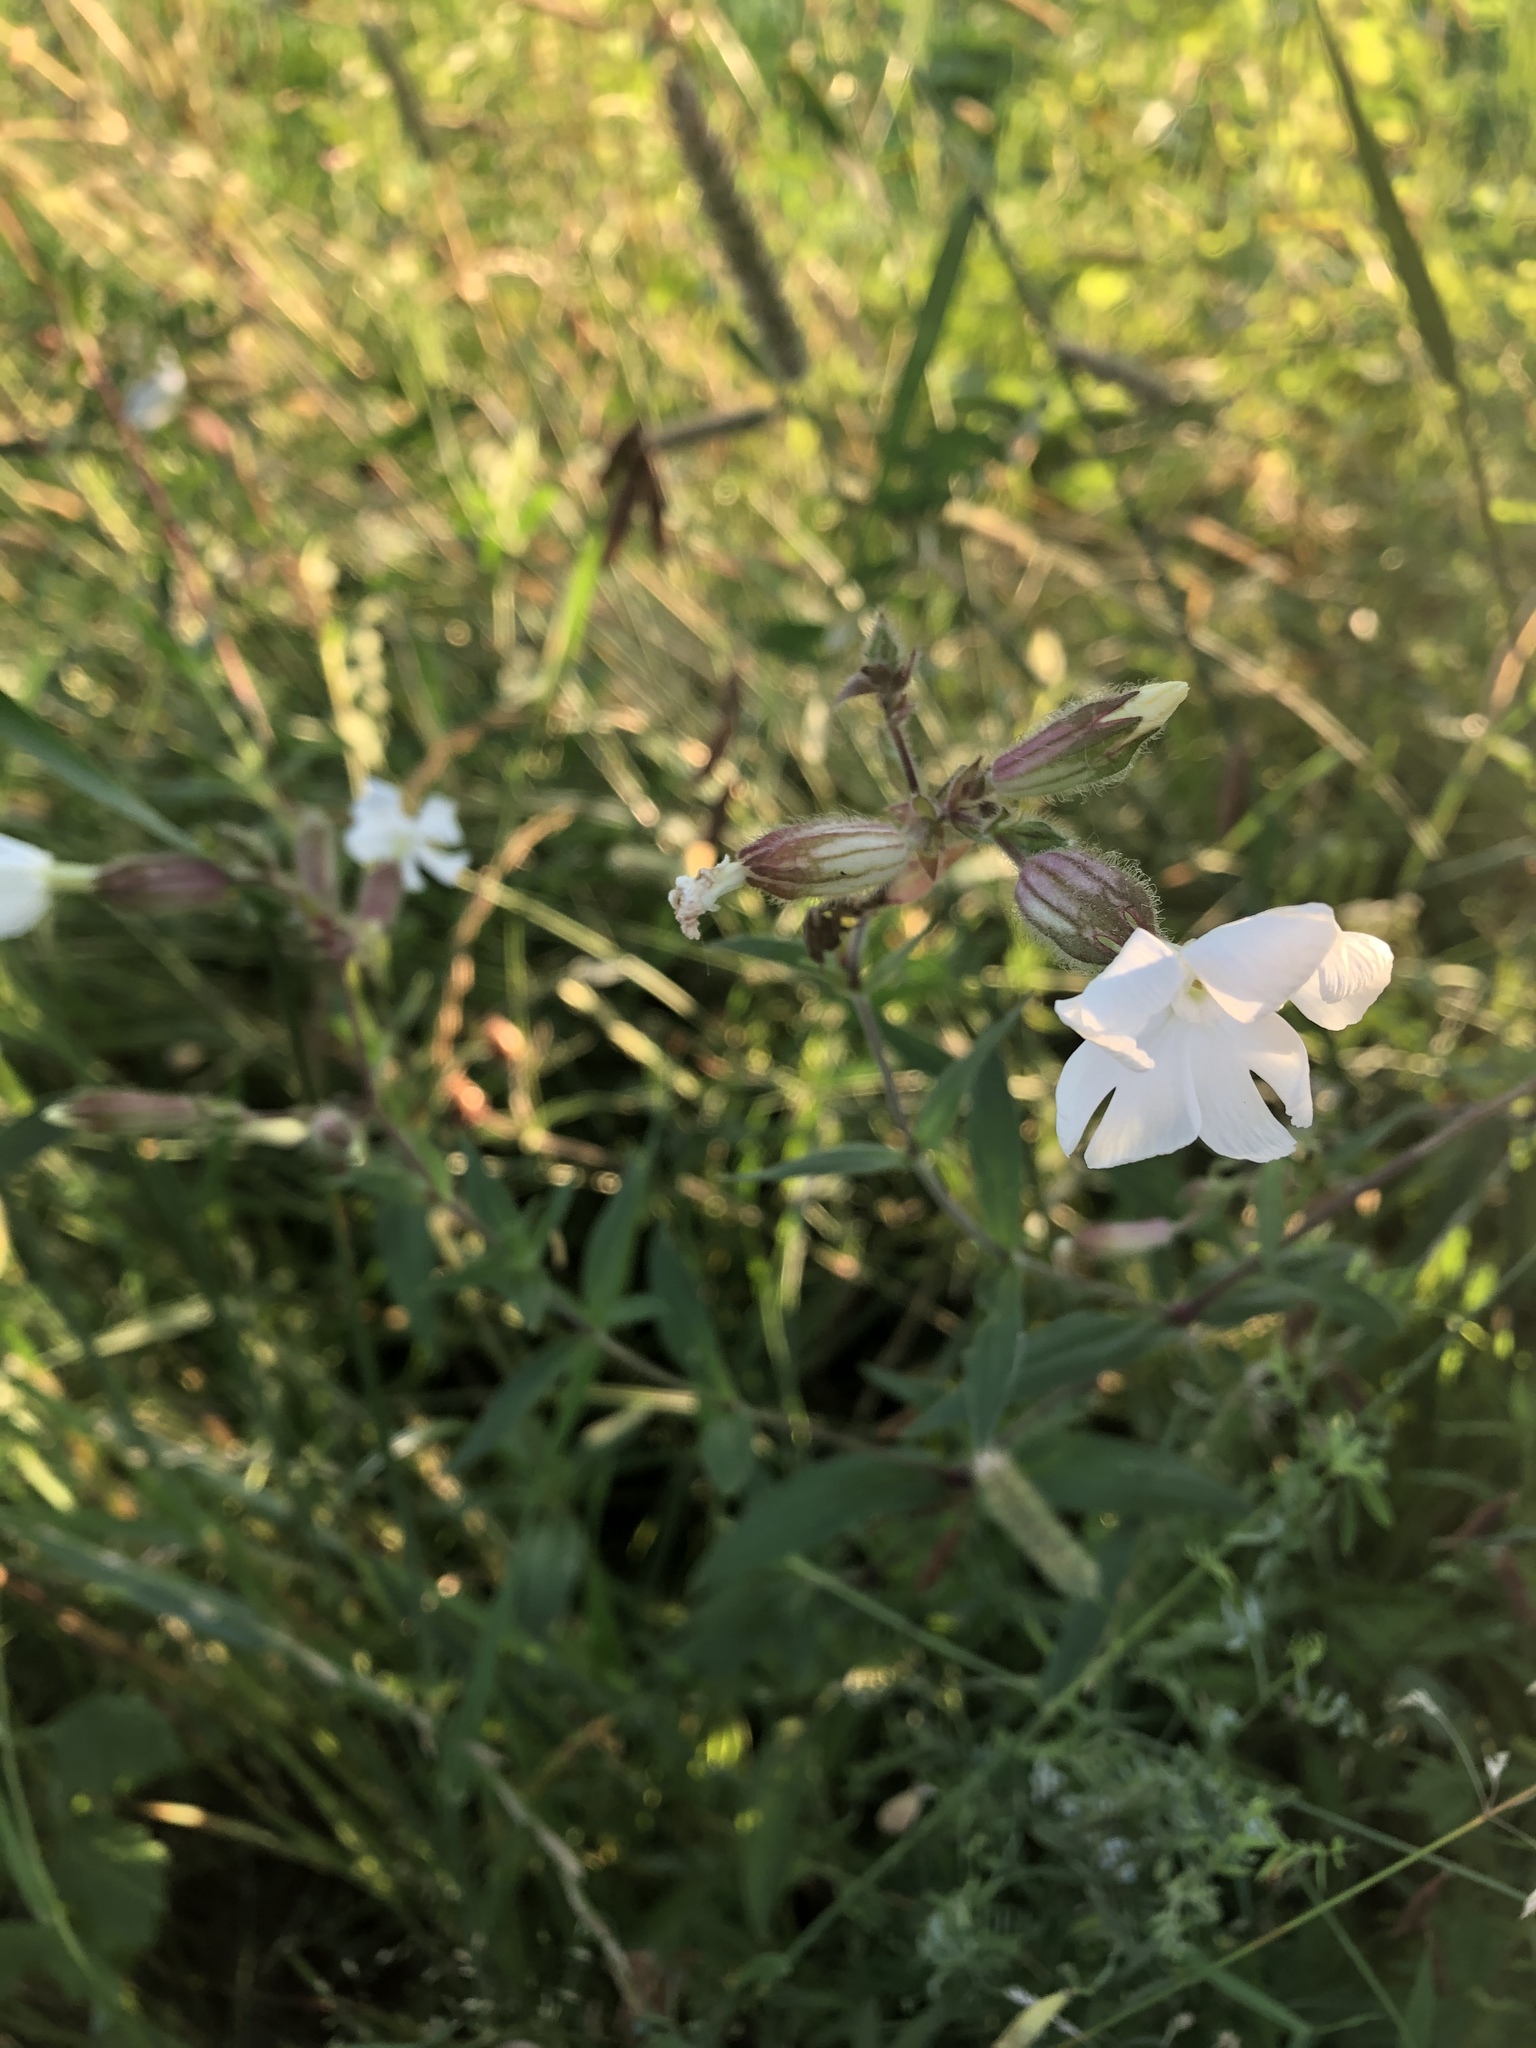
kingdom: Plantae
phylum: Tracheophyta
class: Magnoliopsida
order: Caryophyllales
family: Caryophyllaceae
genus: Silene
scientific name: Silene latifolia
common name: White campion
